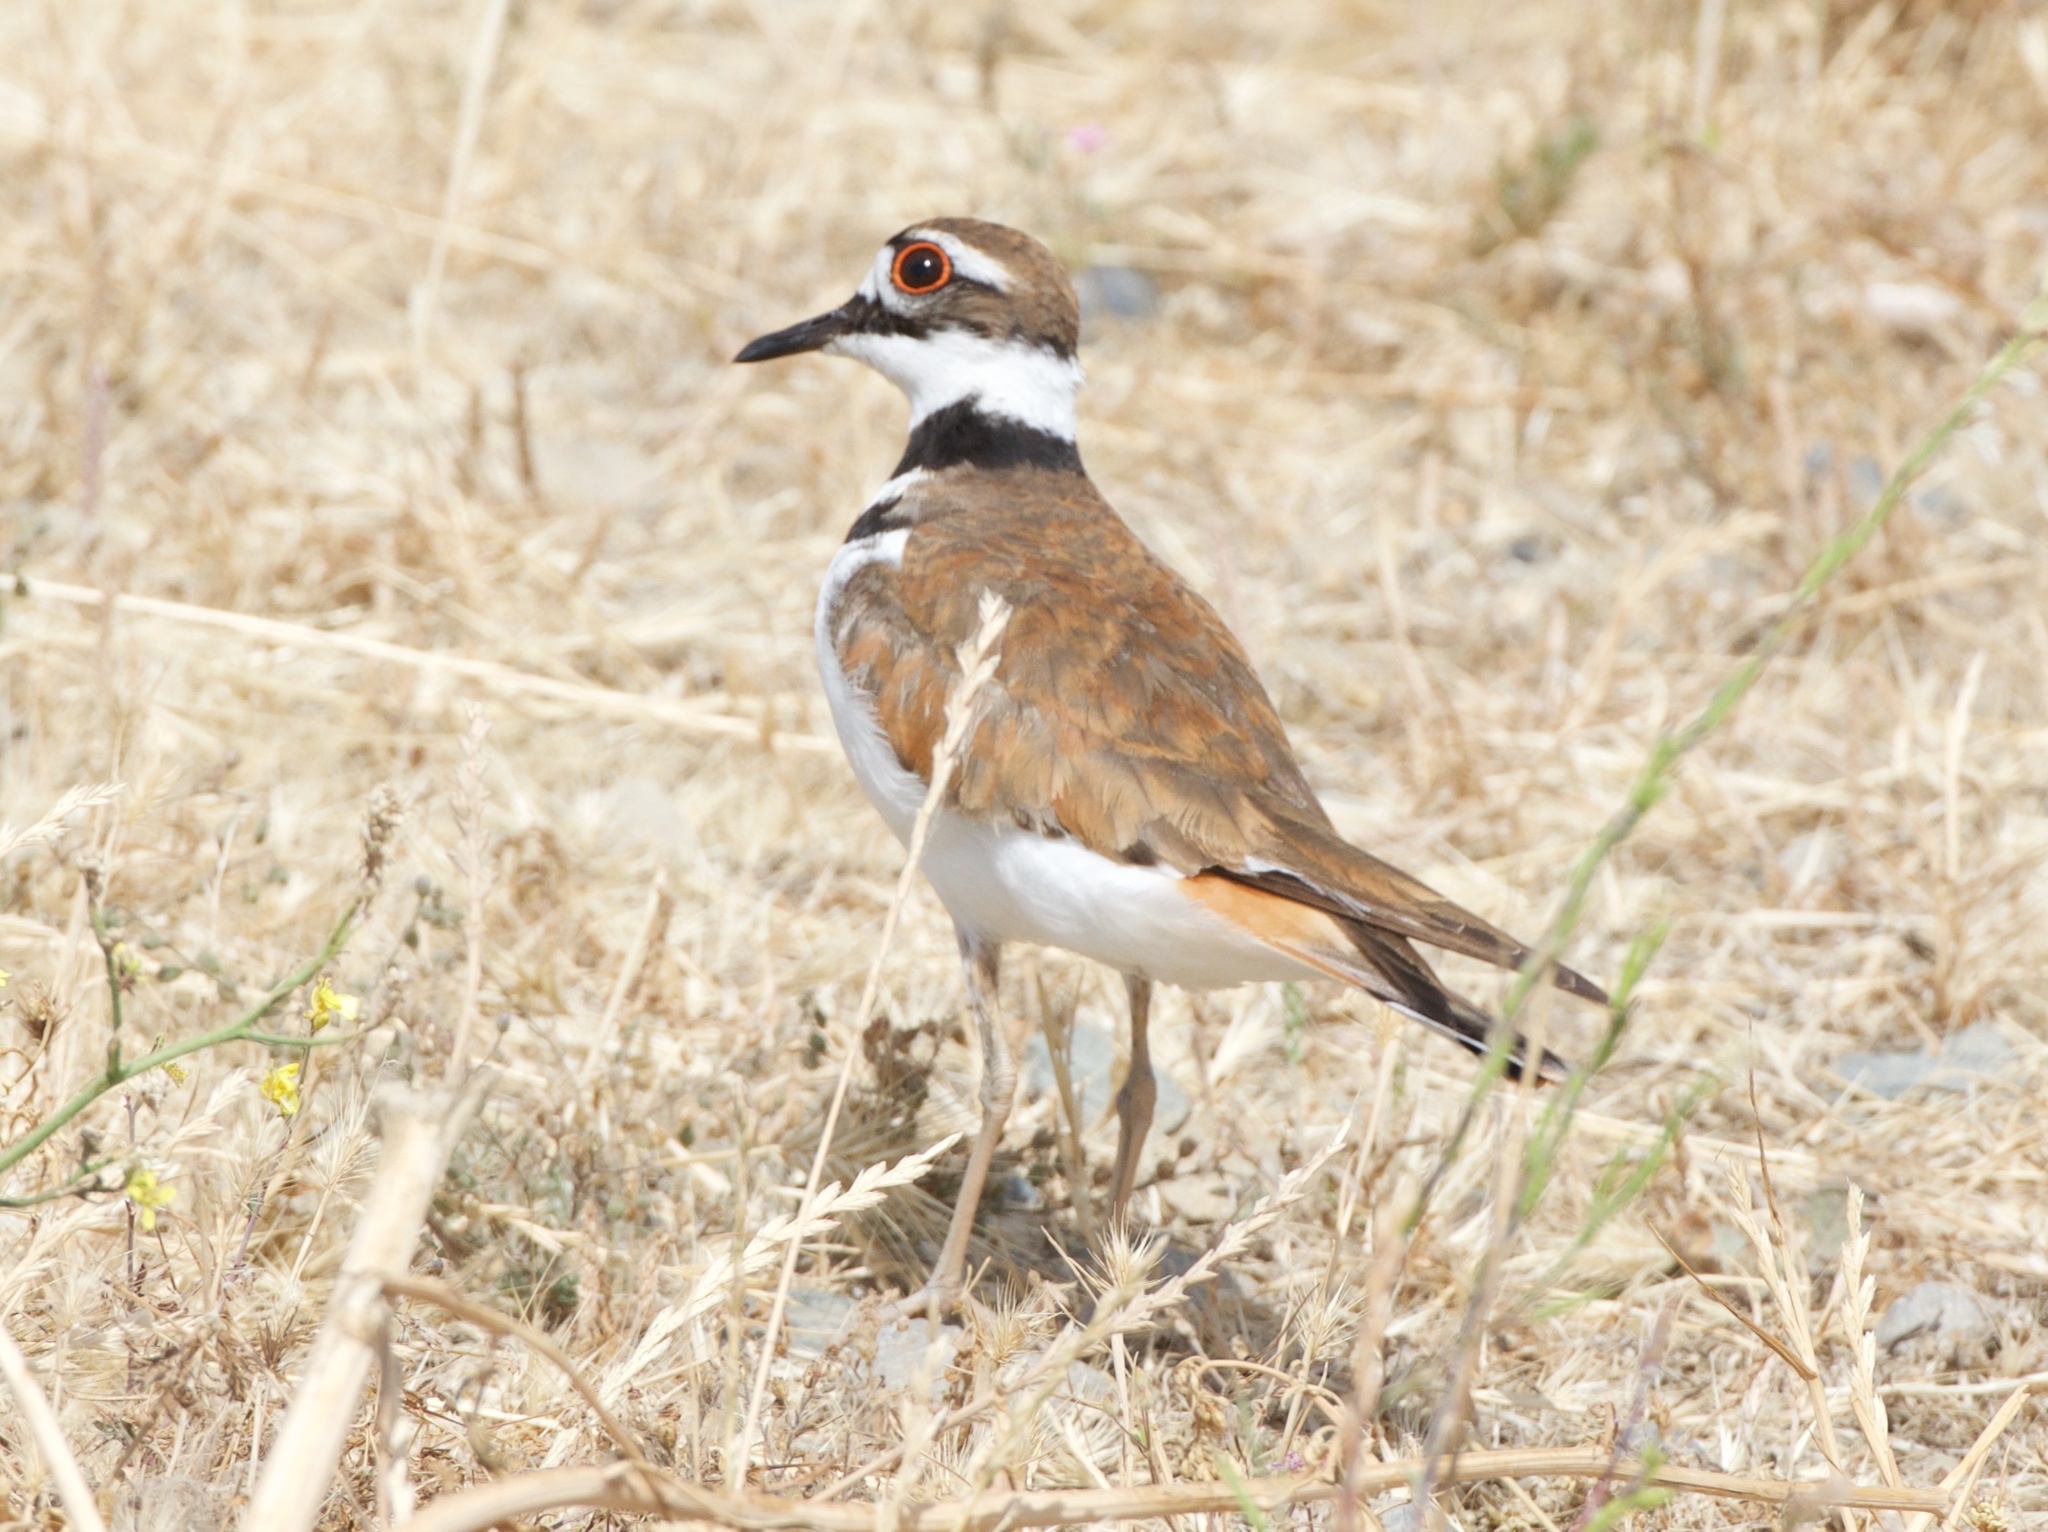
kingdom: Animalia
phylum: Chordata
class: Aves
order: Charadriiformes
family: Charadriidae
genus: Charadrius
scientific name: Charadrius vociferus
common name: Killdeer
